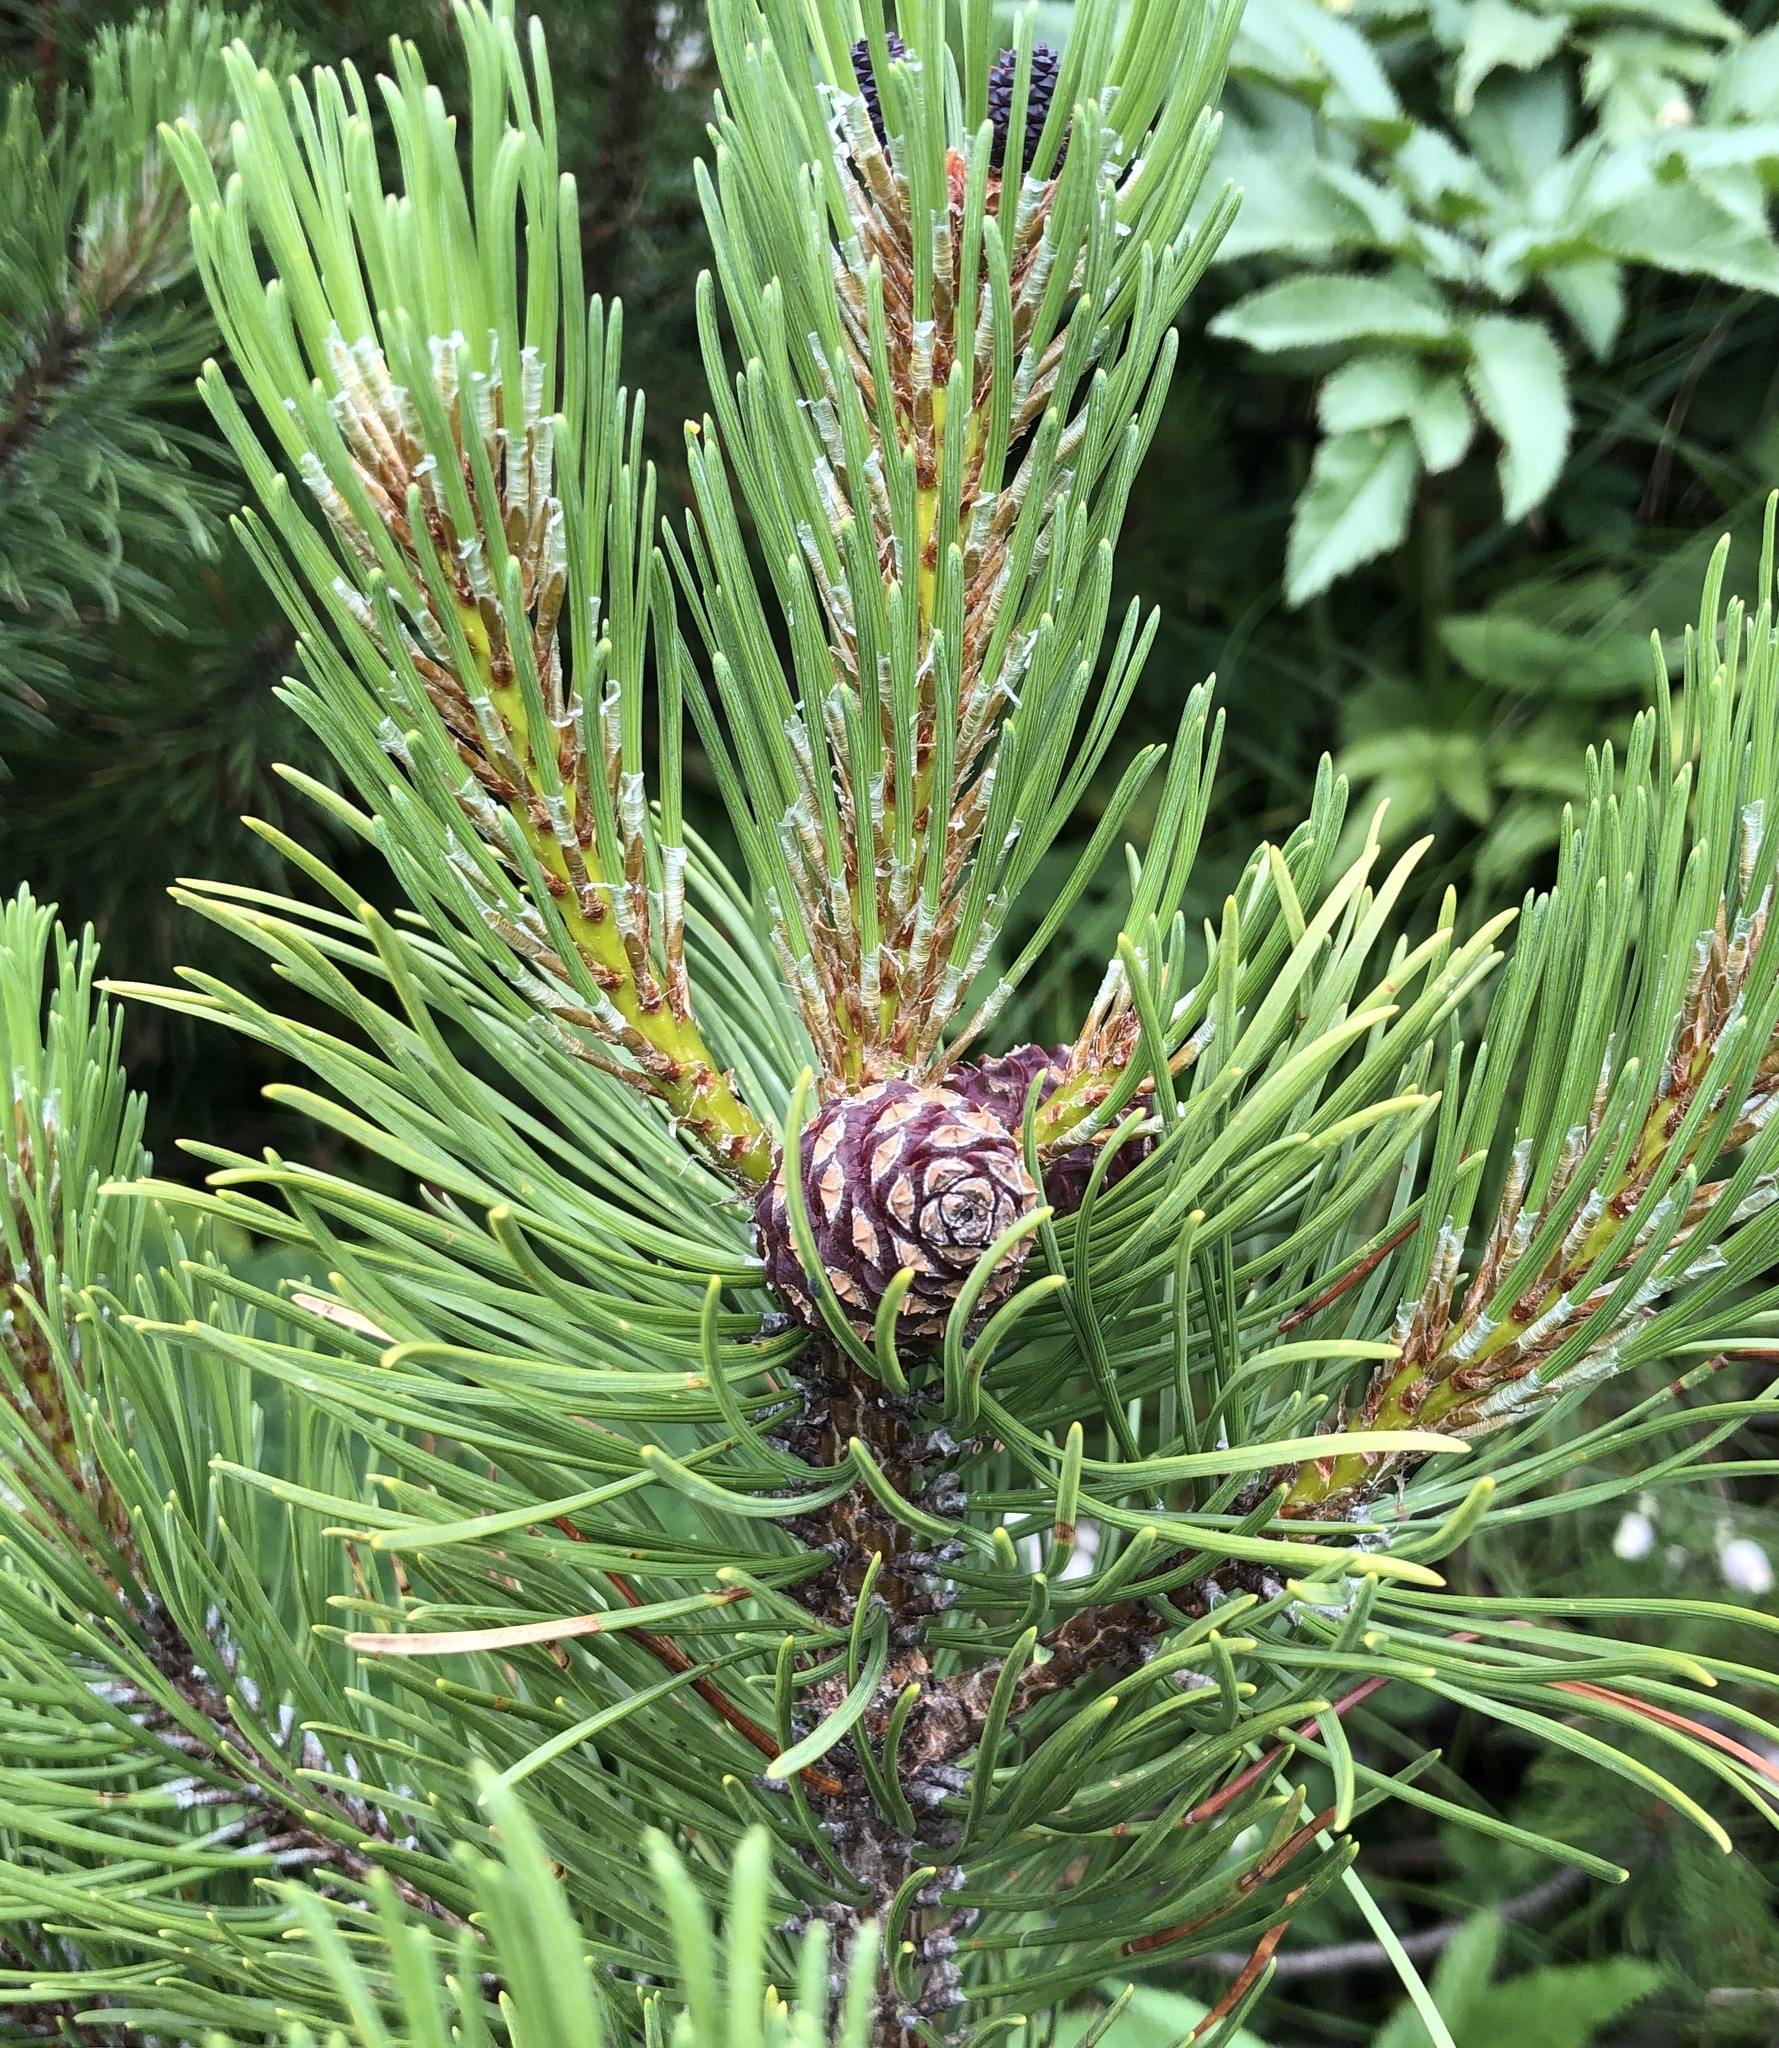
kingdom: Plantae
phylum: Tracheophyta
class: Pinopsida
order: Pinales
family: Pinaceae
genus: Pinus
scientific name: Pinus mugo
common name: Mugo pine
